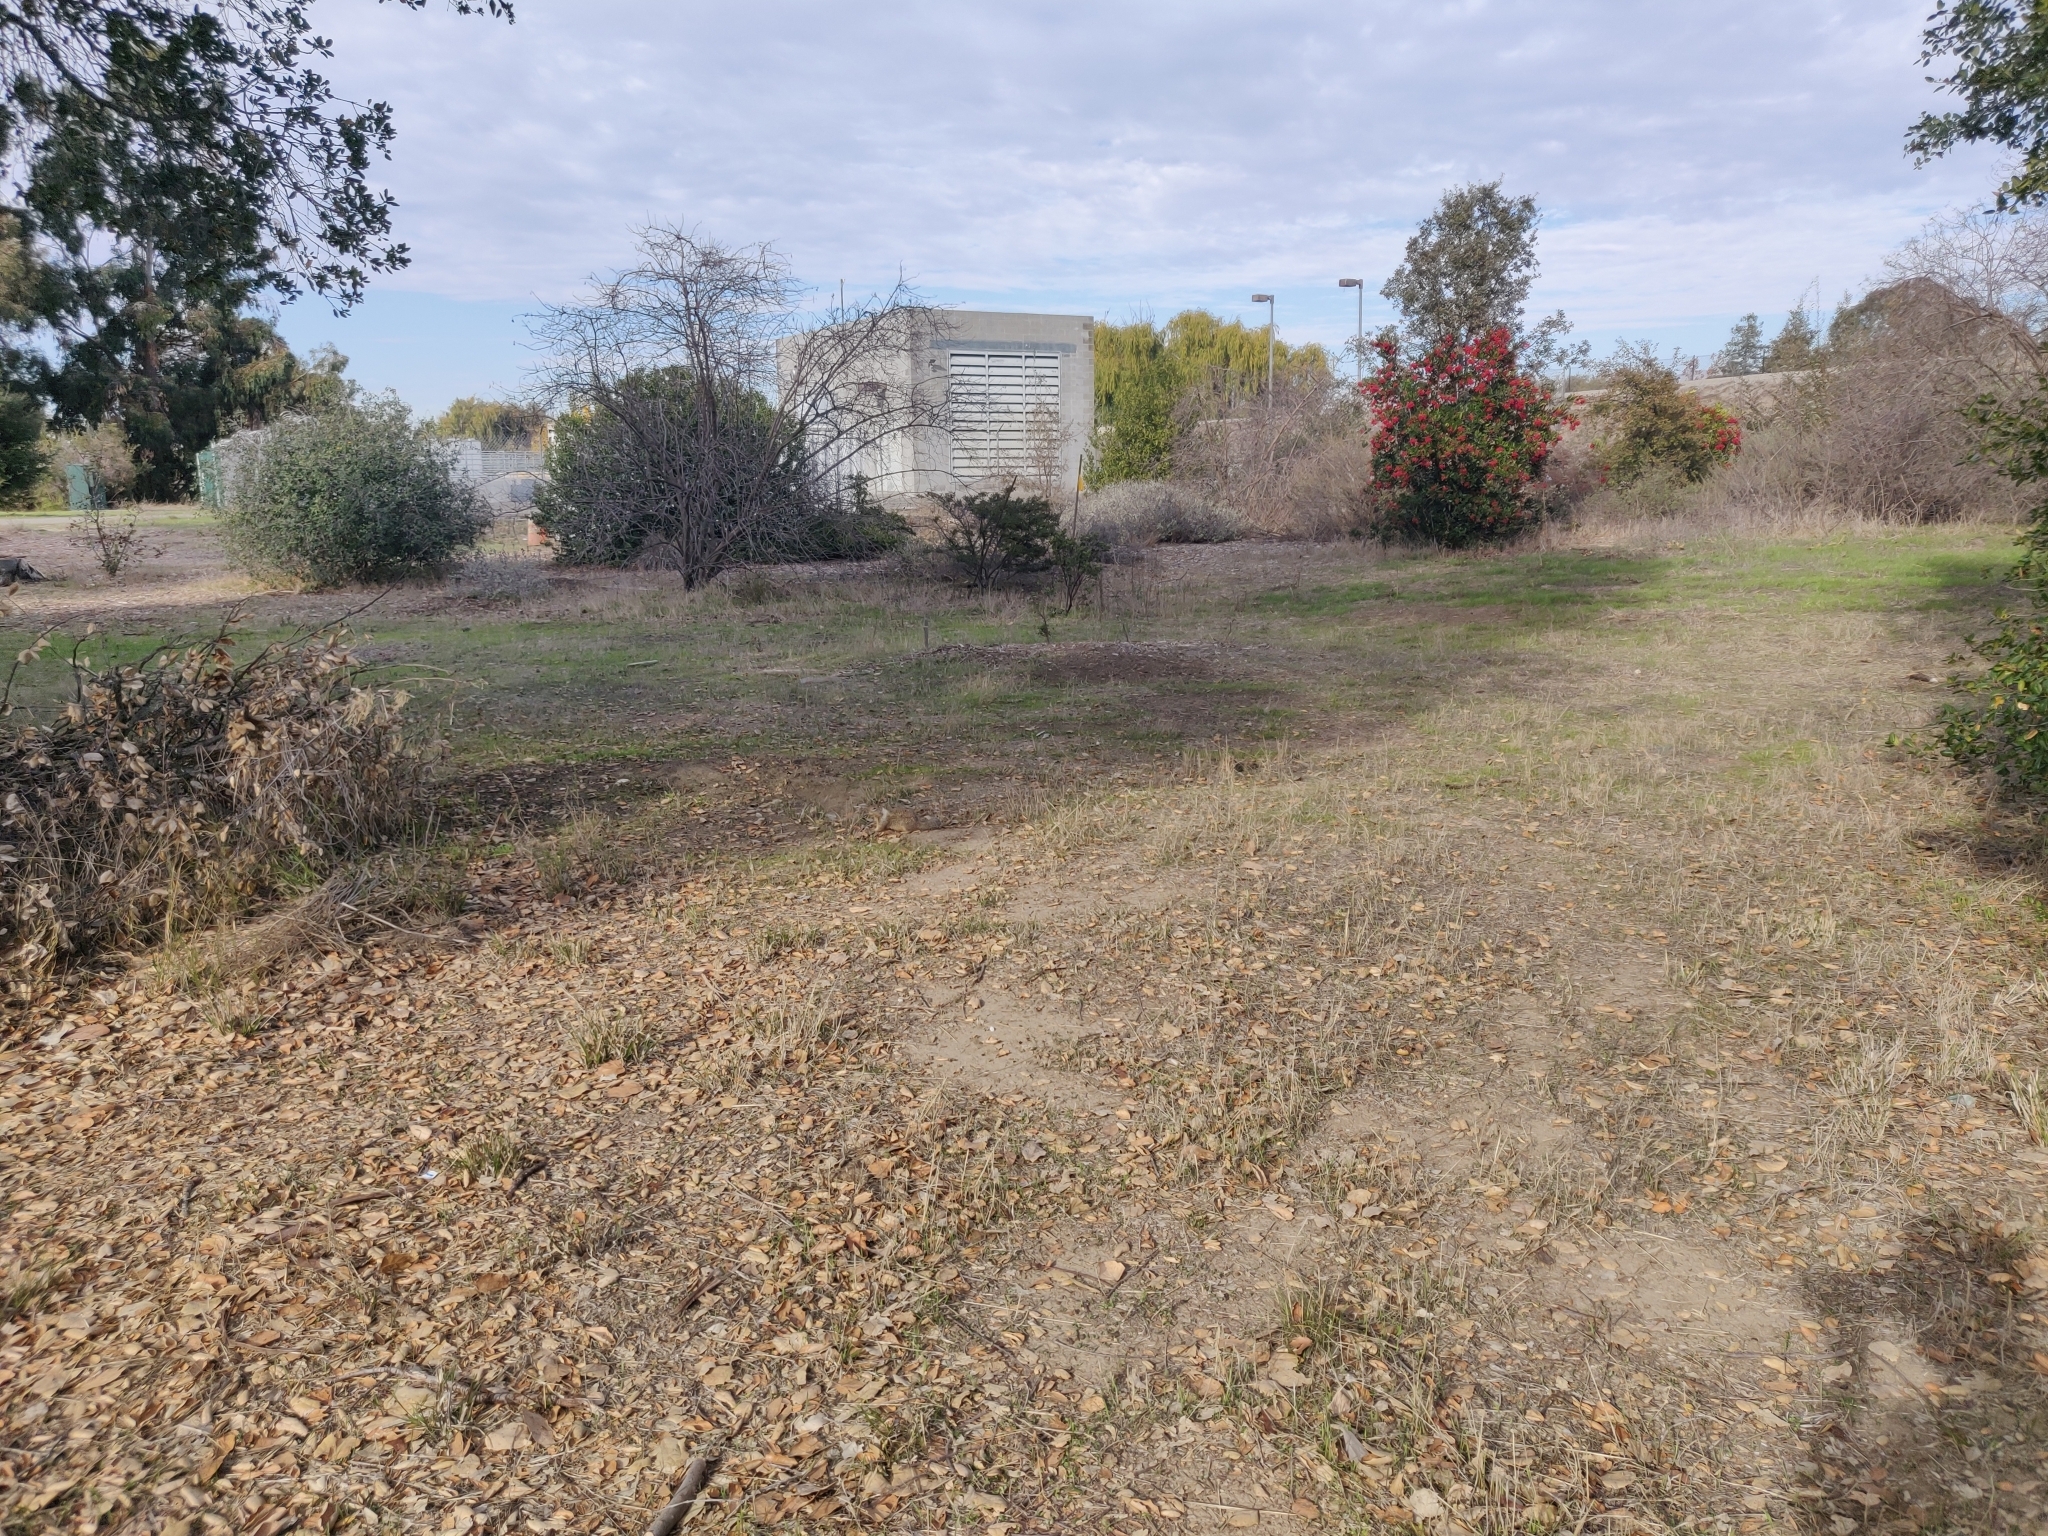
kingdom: Animalia
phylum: Chordata
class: Mammalia
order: Rodentia
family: Sciuridae
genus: Otospermophilus
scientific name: Otospermophilus beecheyi
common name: California ground squirrel
